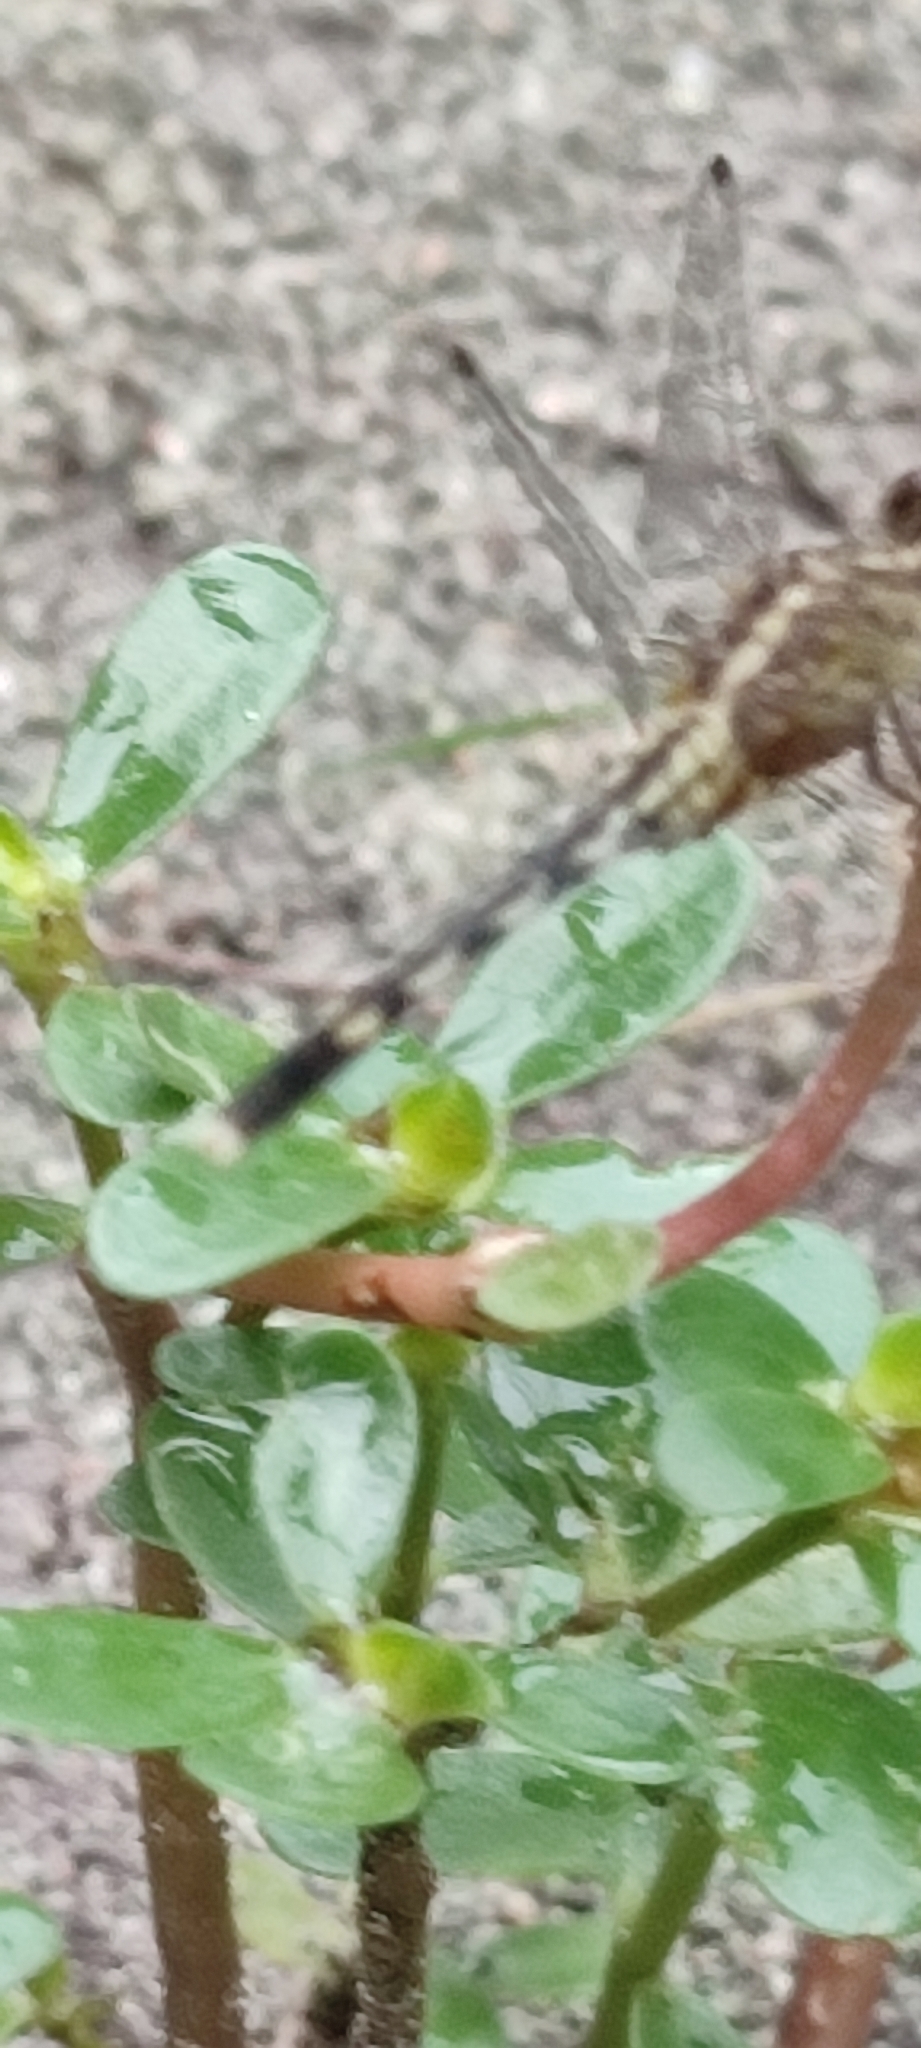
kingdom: Plantae
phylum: Tracheophyta
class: Magnoliopsida
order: Caryophyllales
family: Portulacaceae
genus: Portulaca
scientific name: Portulaca oleracea
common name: Common purslane
